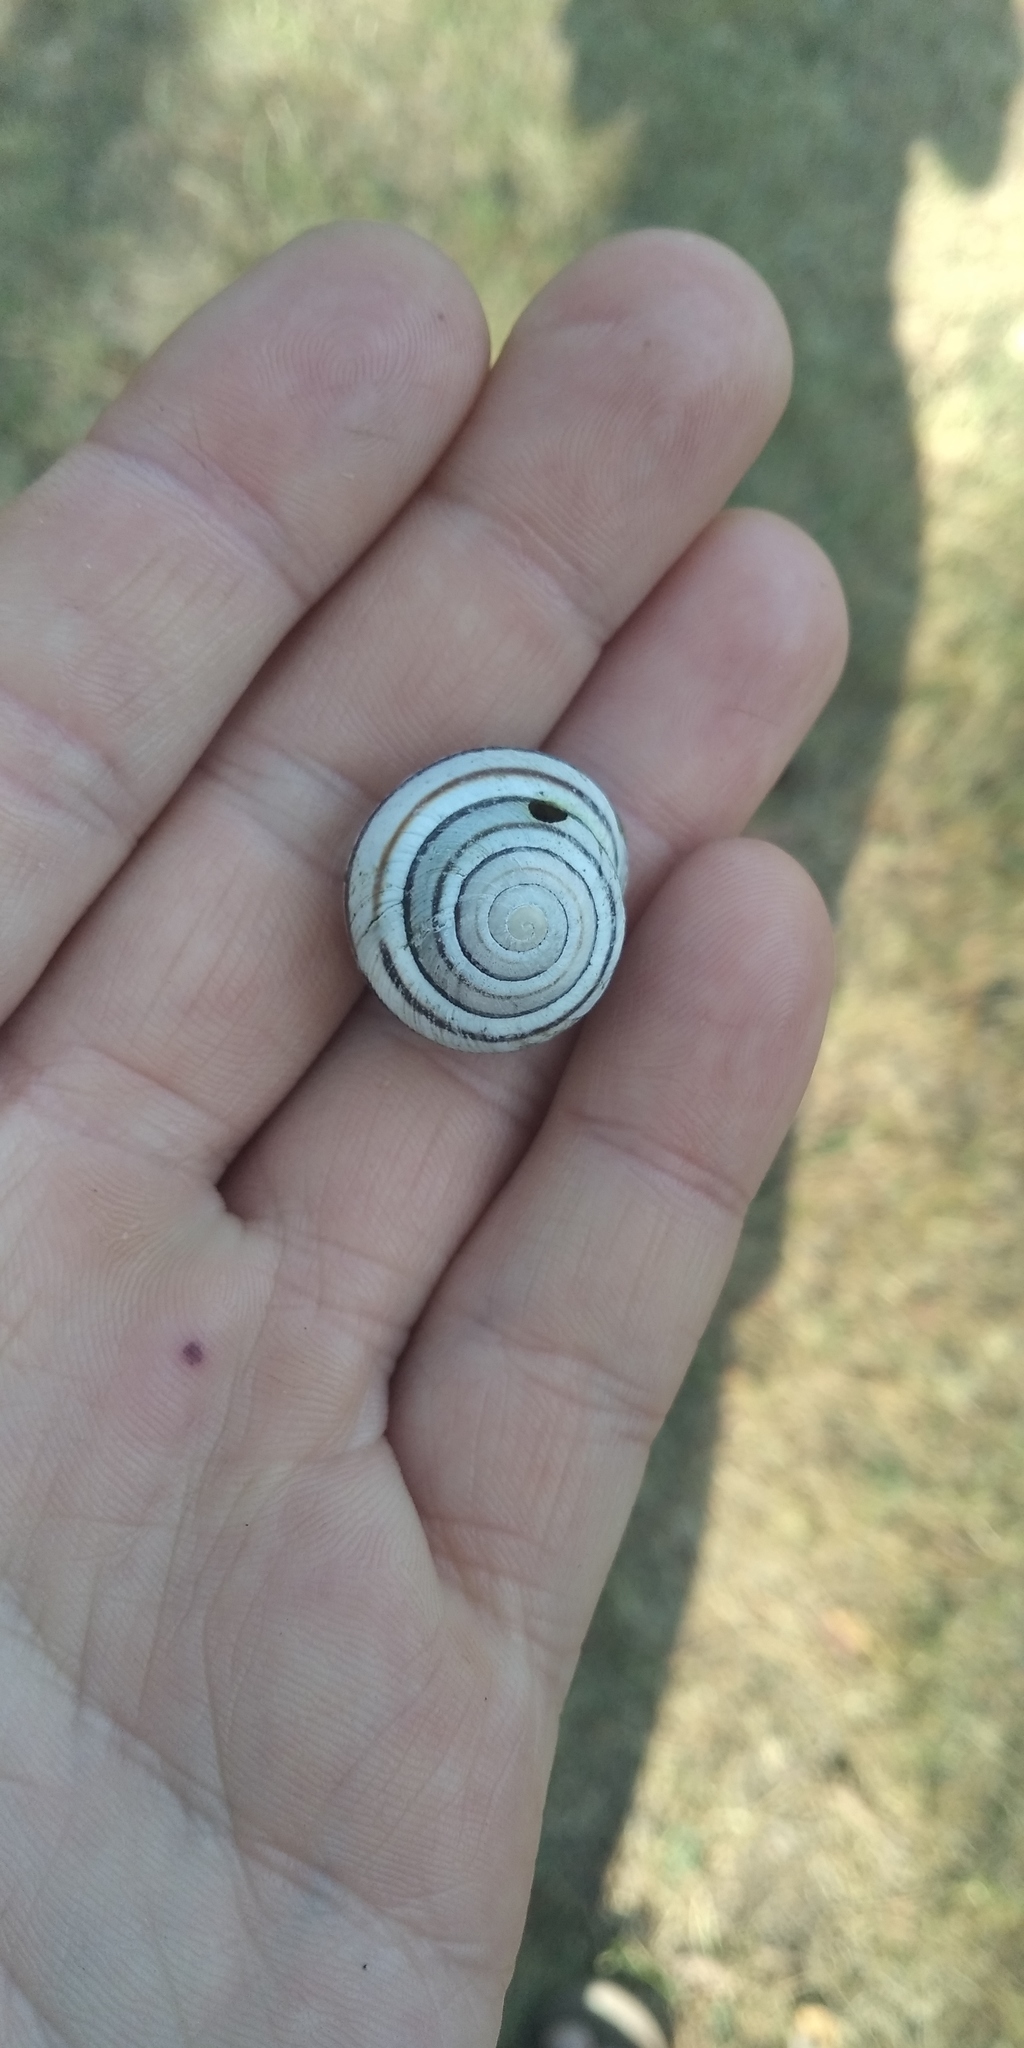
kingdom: Animalia
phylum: Mollusca
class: Gastropoda
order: Stylommatophora
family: Helicidae
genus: Caucasotachea
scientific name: Caucasotachea vindobonensis
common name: European helicid land snail
